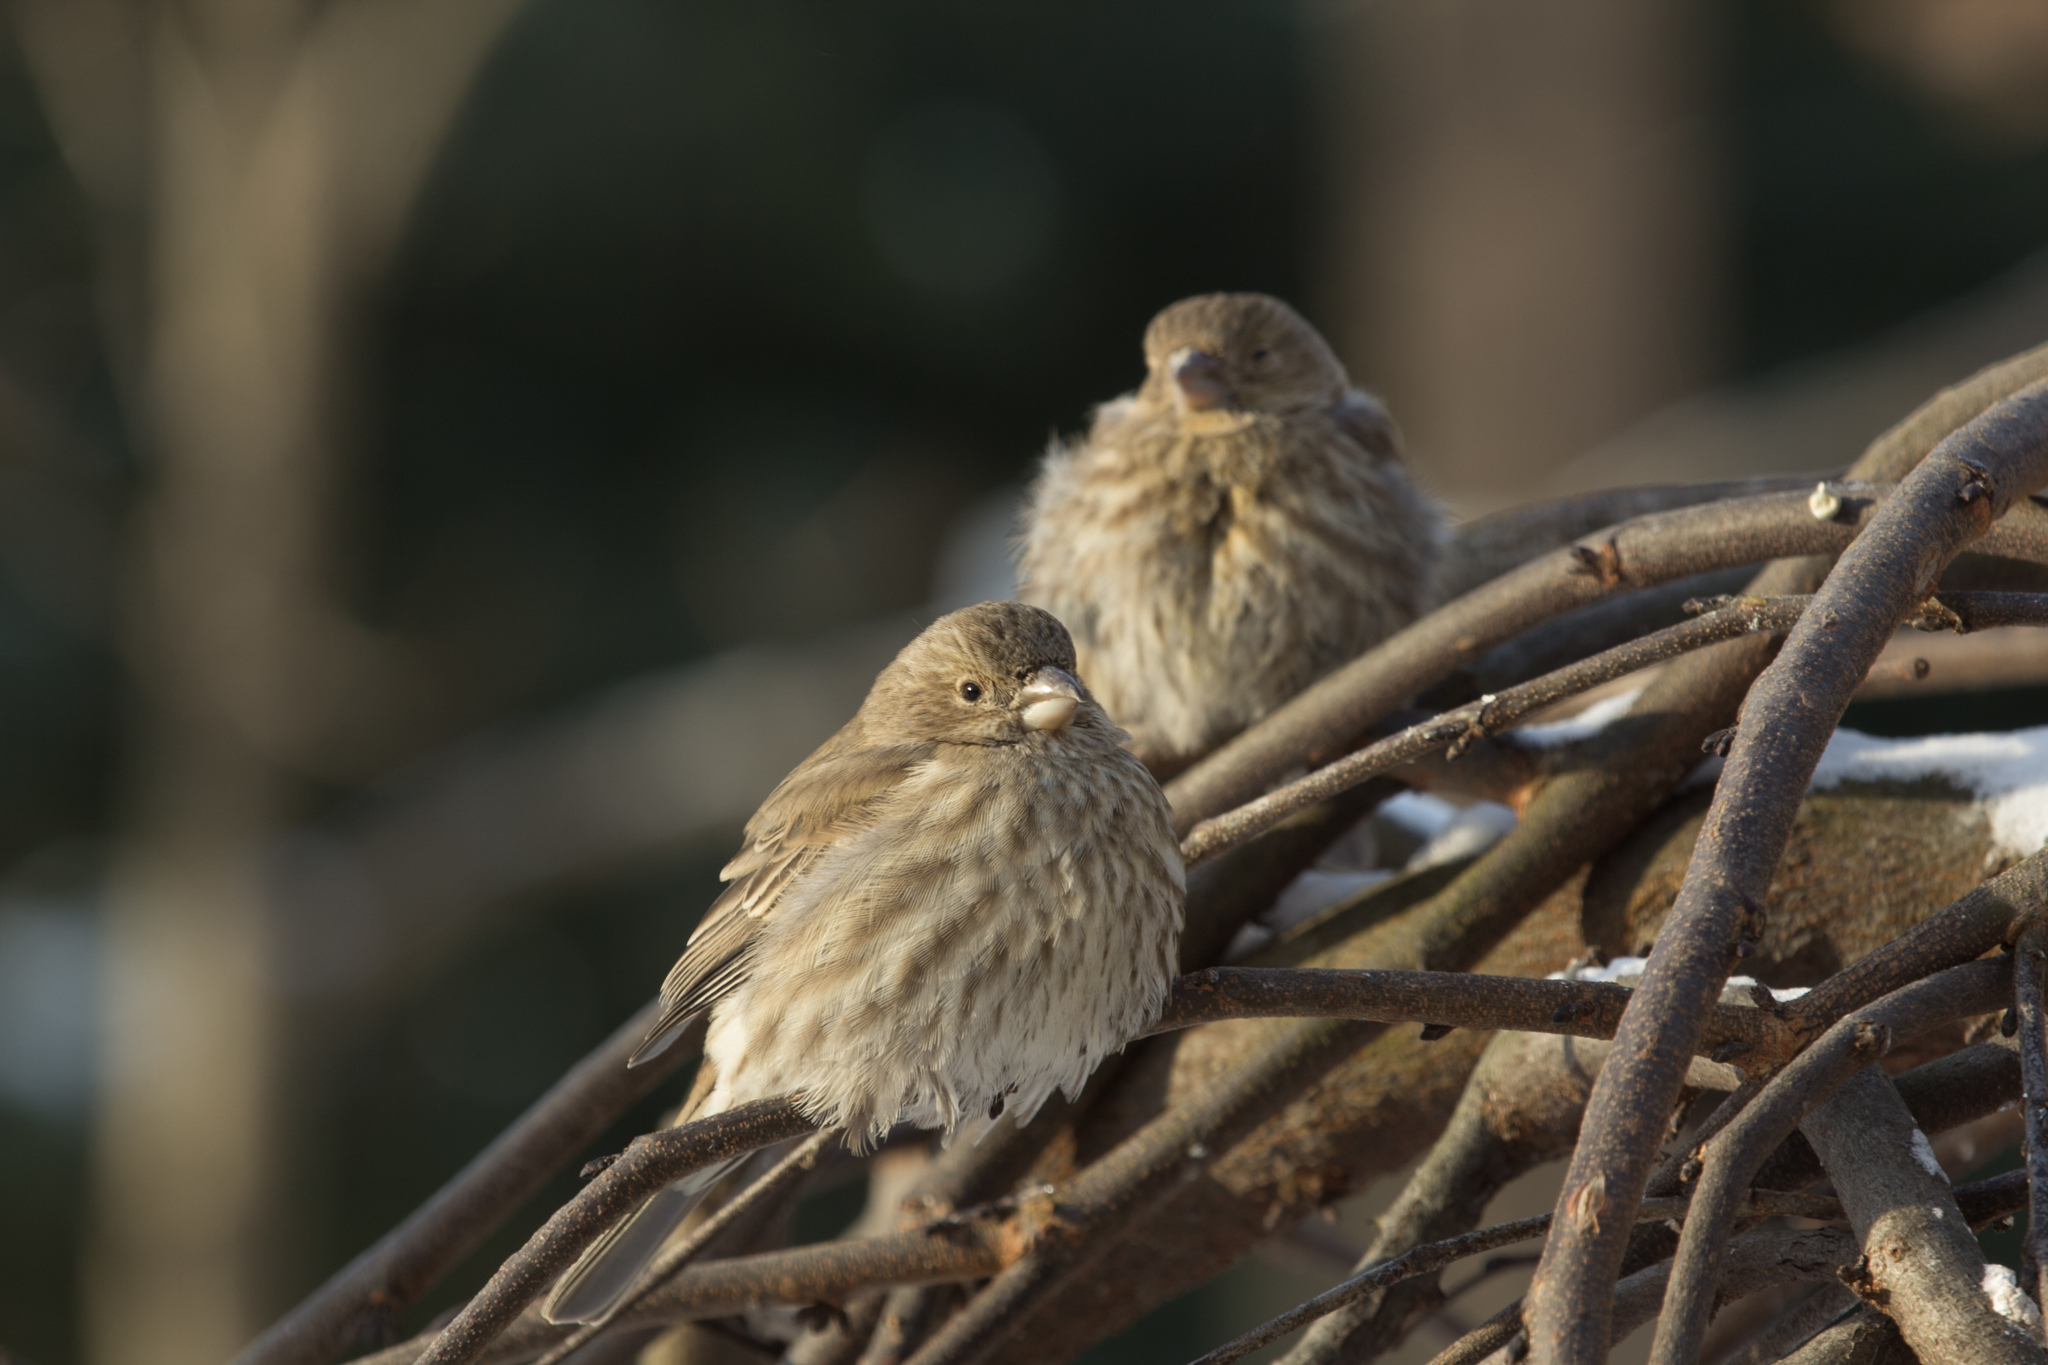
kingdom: Animalia
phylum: Chordata
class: Aves
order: Passeriformes
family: Fringillidae
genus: Haemorhous
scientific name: Haemorhous mexicanus
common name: House finch
